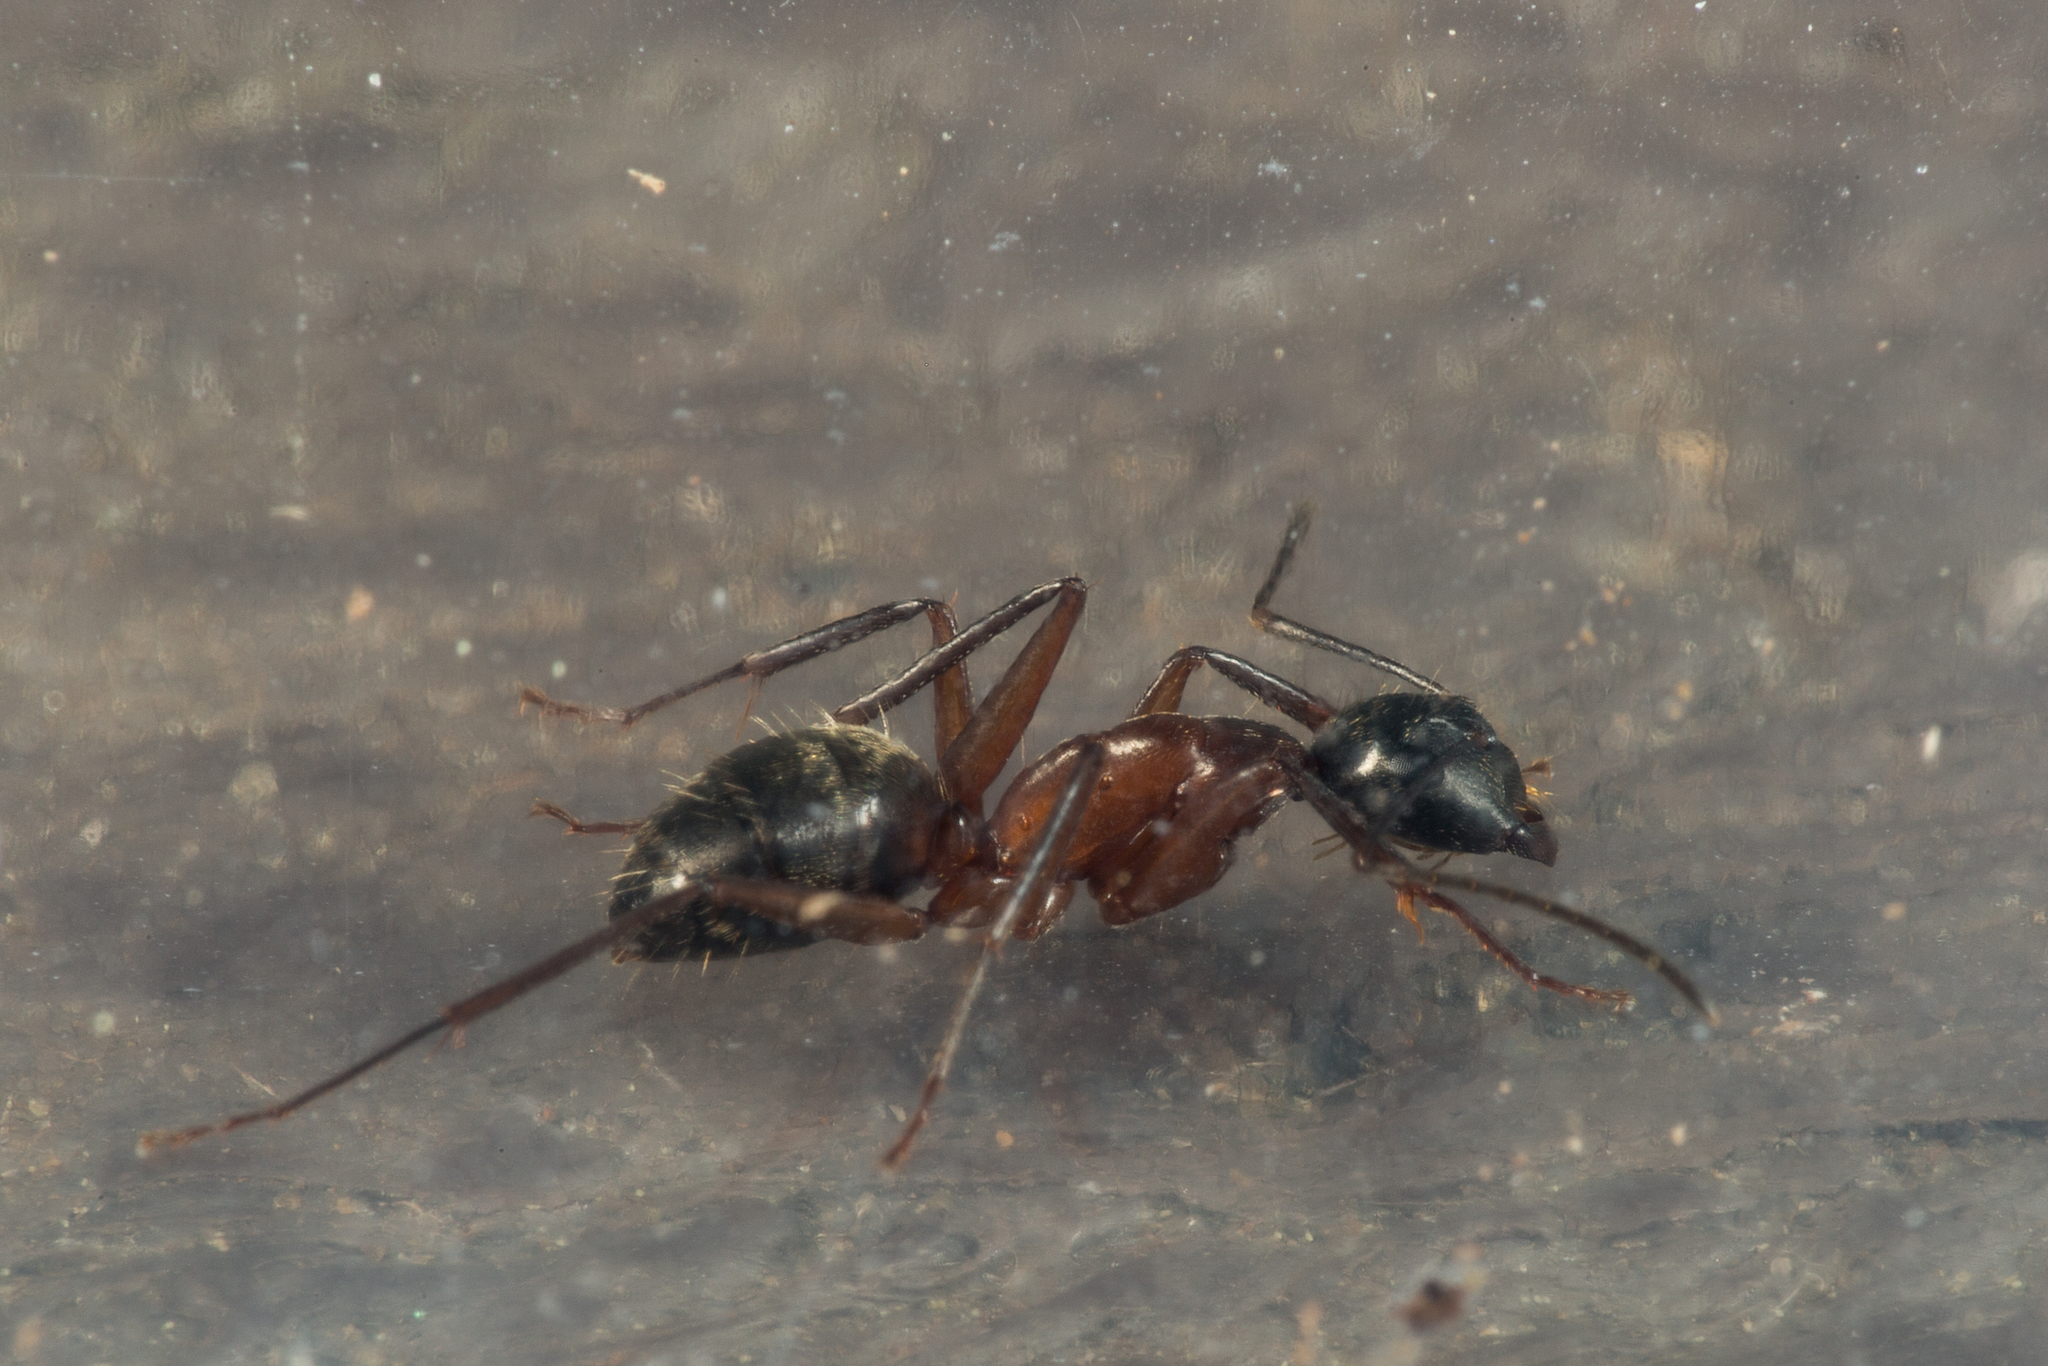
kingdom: Animalia
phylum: Arthropoda
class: Insecta
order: Hymenoptera
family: Formicidae
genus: Camponotus
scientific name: Camponotus chromaiodes
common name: Red carpenter ant
